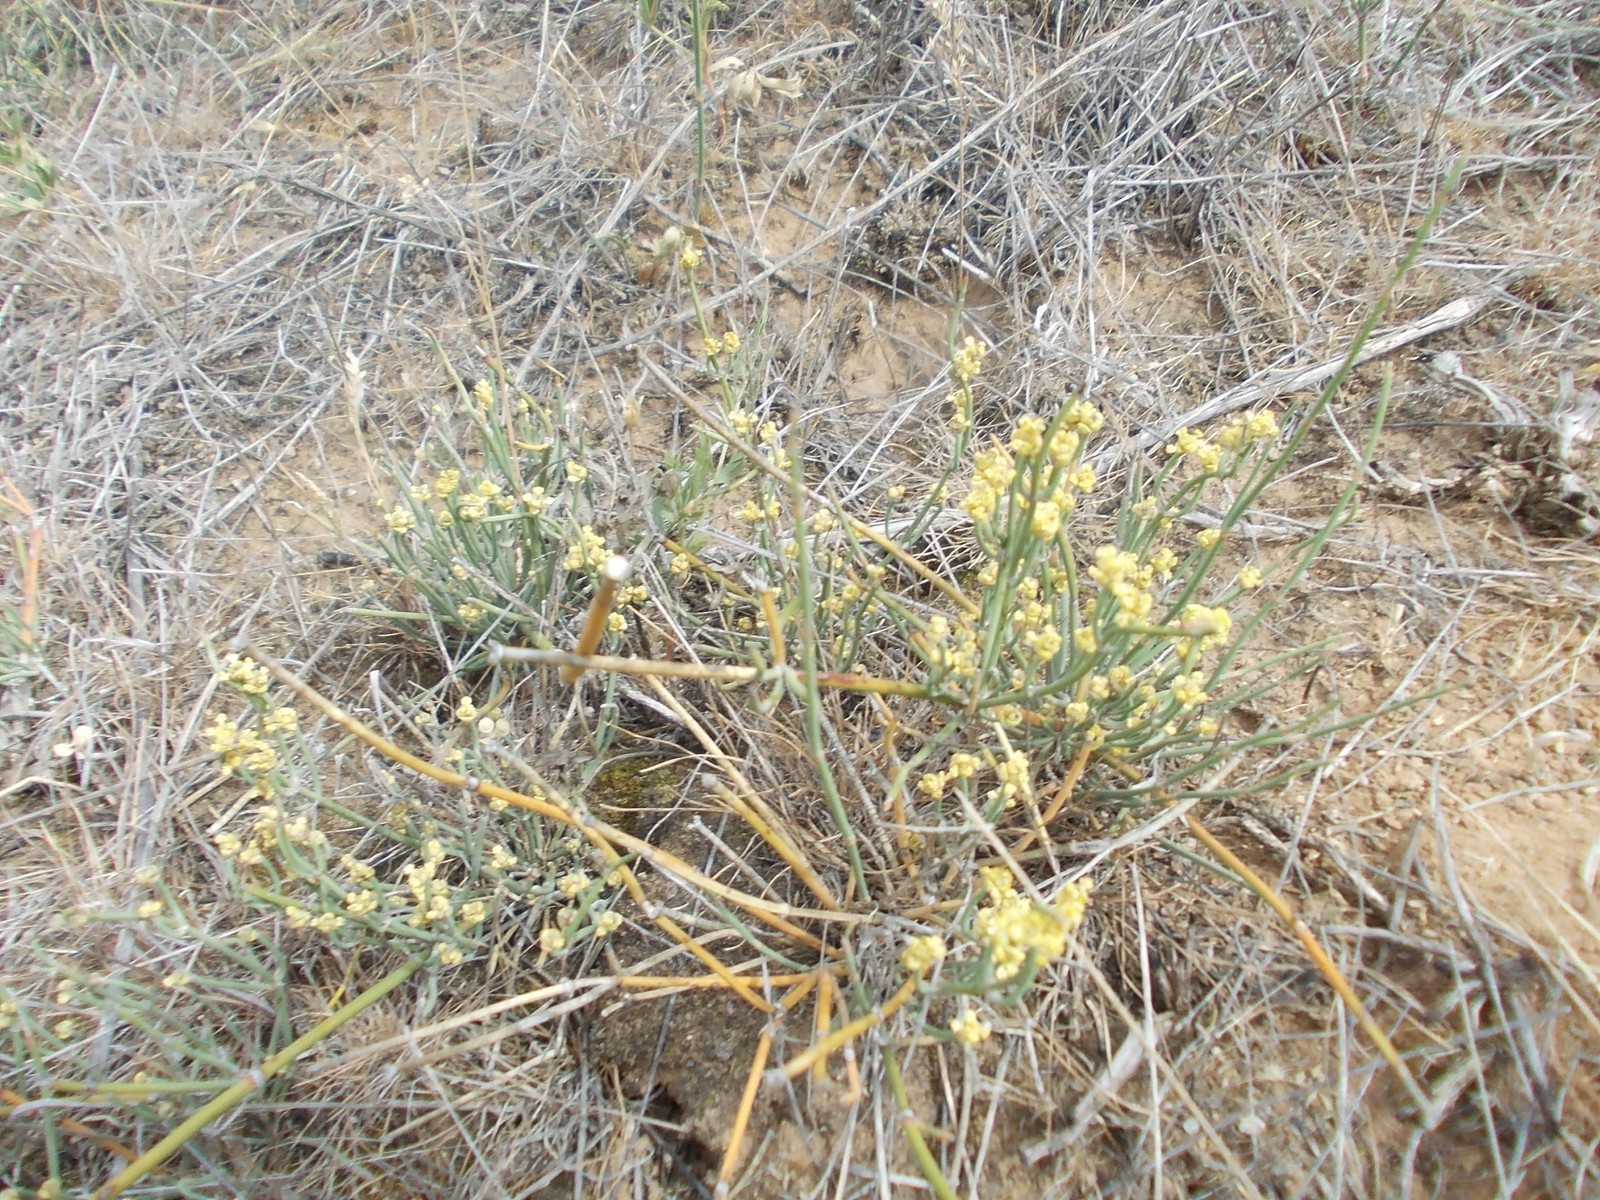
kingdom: Plantae
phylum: Tracheophyta
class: Gnetopsida
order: Ephedrales
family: Ephedraceae
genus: Ephedra
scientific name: Ephedra distachya
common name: Sea grape
